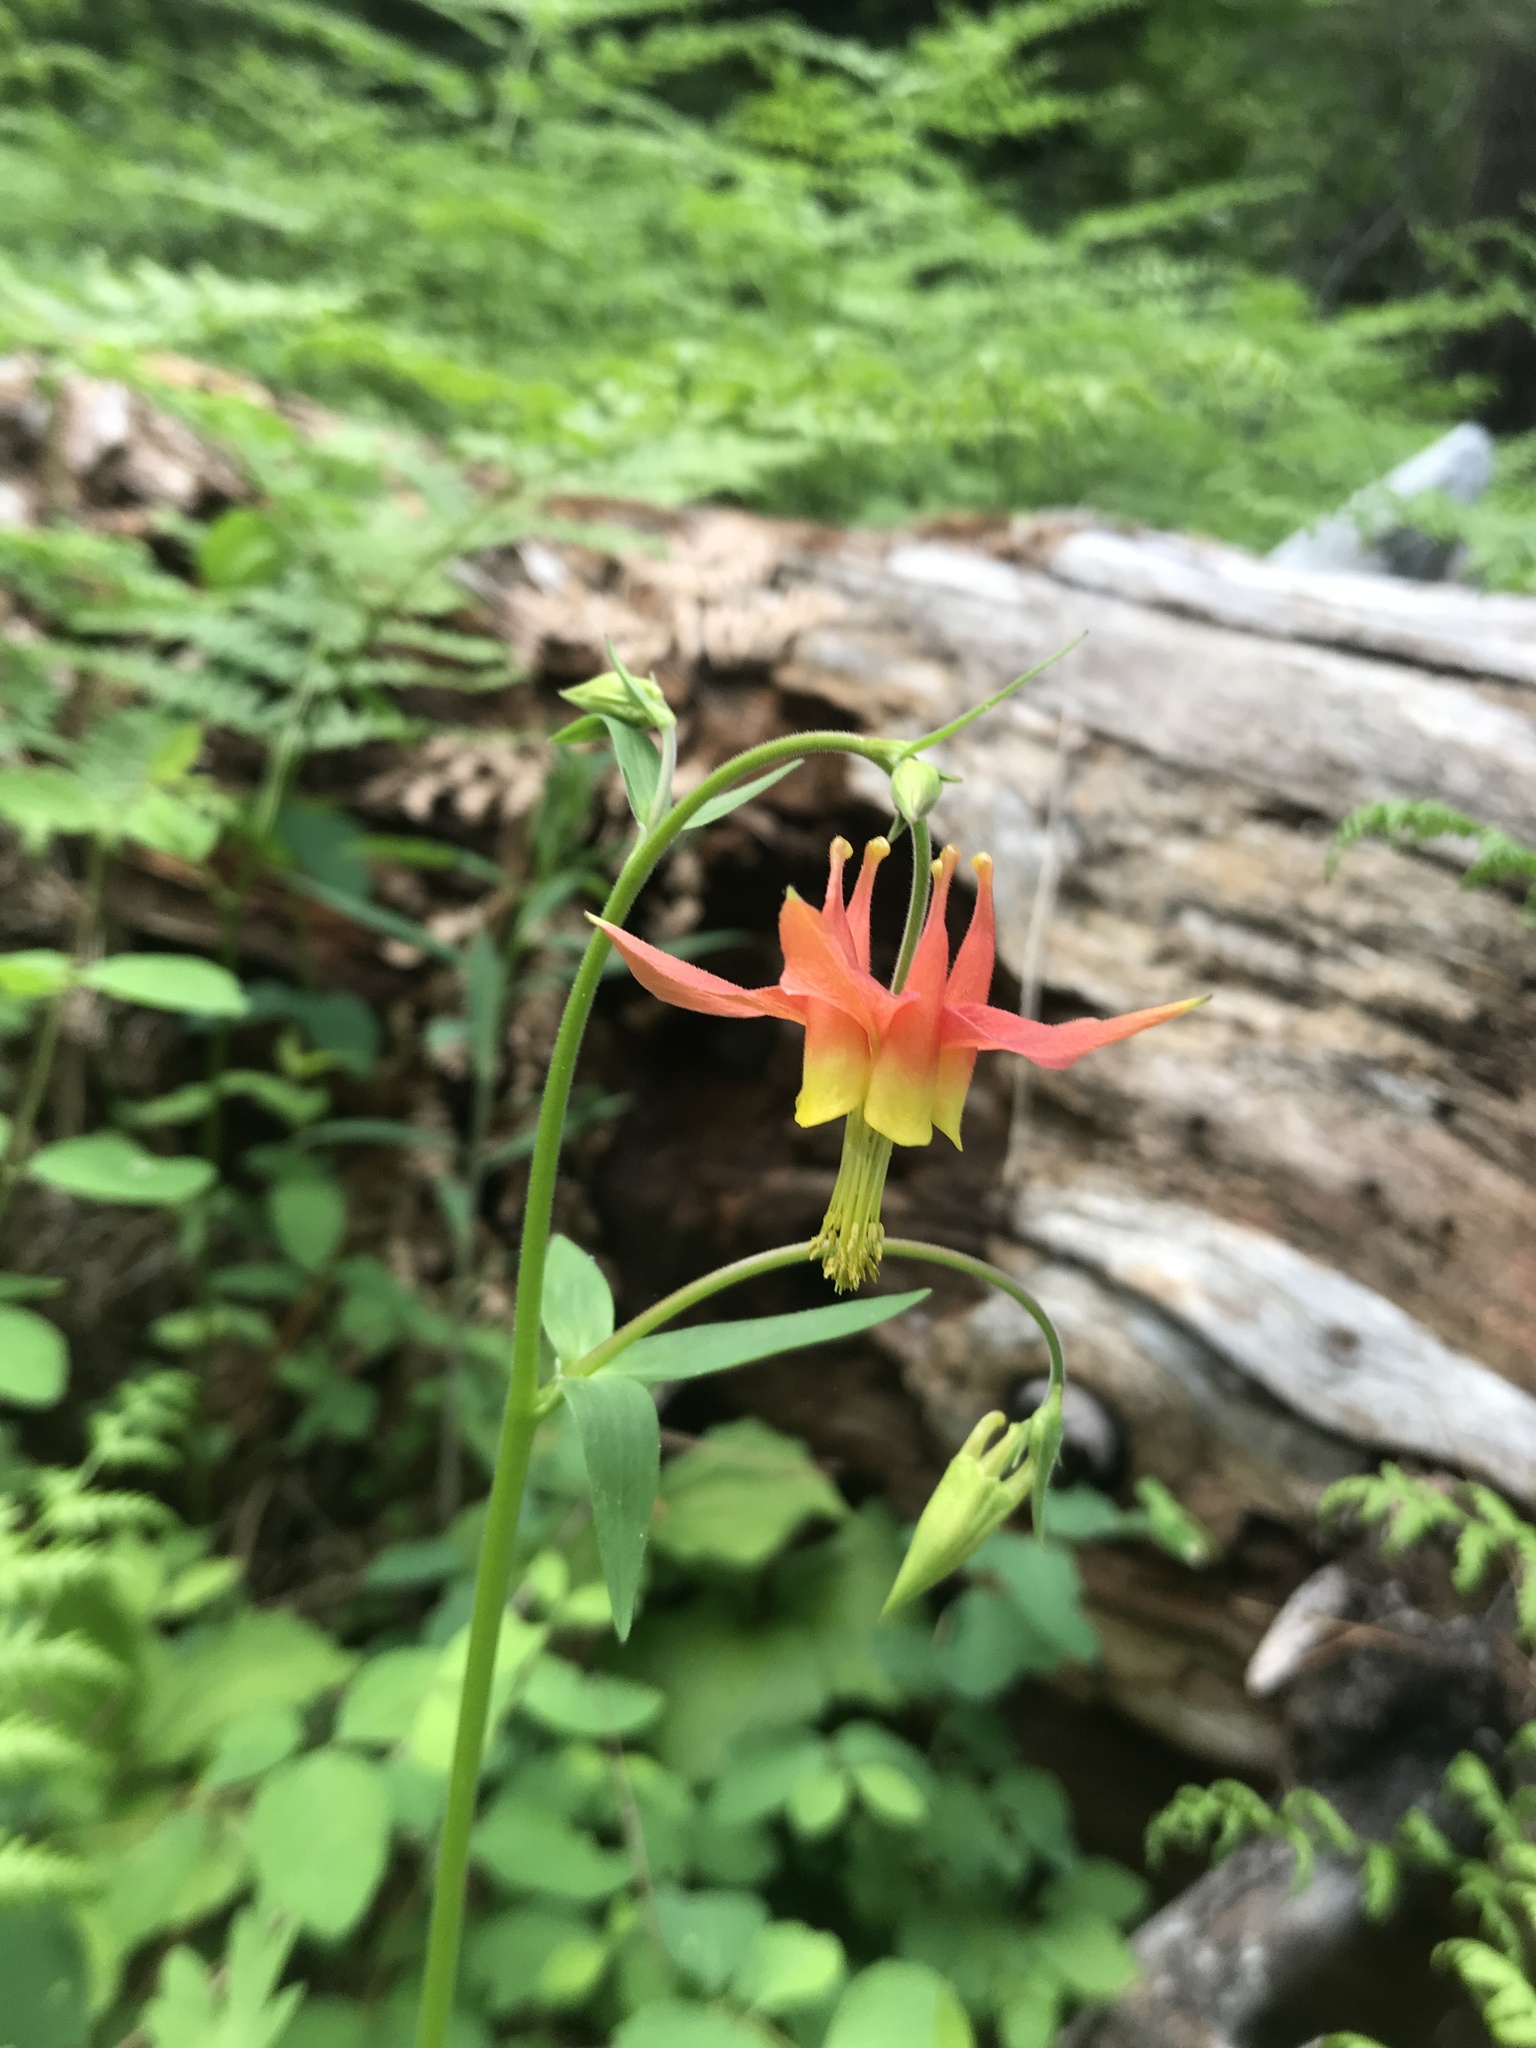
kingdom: Plantae
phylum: Tracheophyta
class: Magnoliopsida
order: Ranunculales
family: Ranunculaceae
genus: Aquilegia
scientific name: Aquilegia formosa
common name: Sitka columbine
